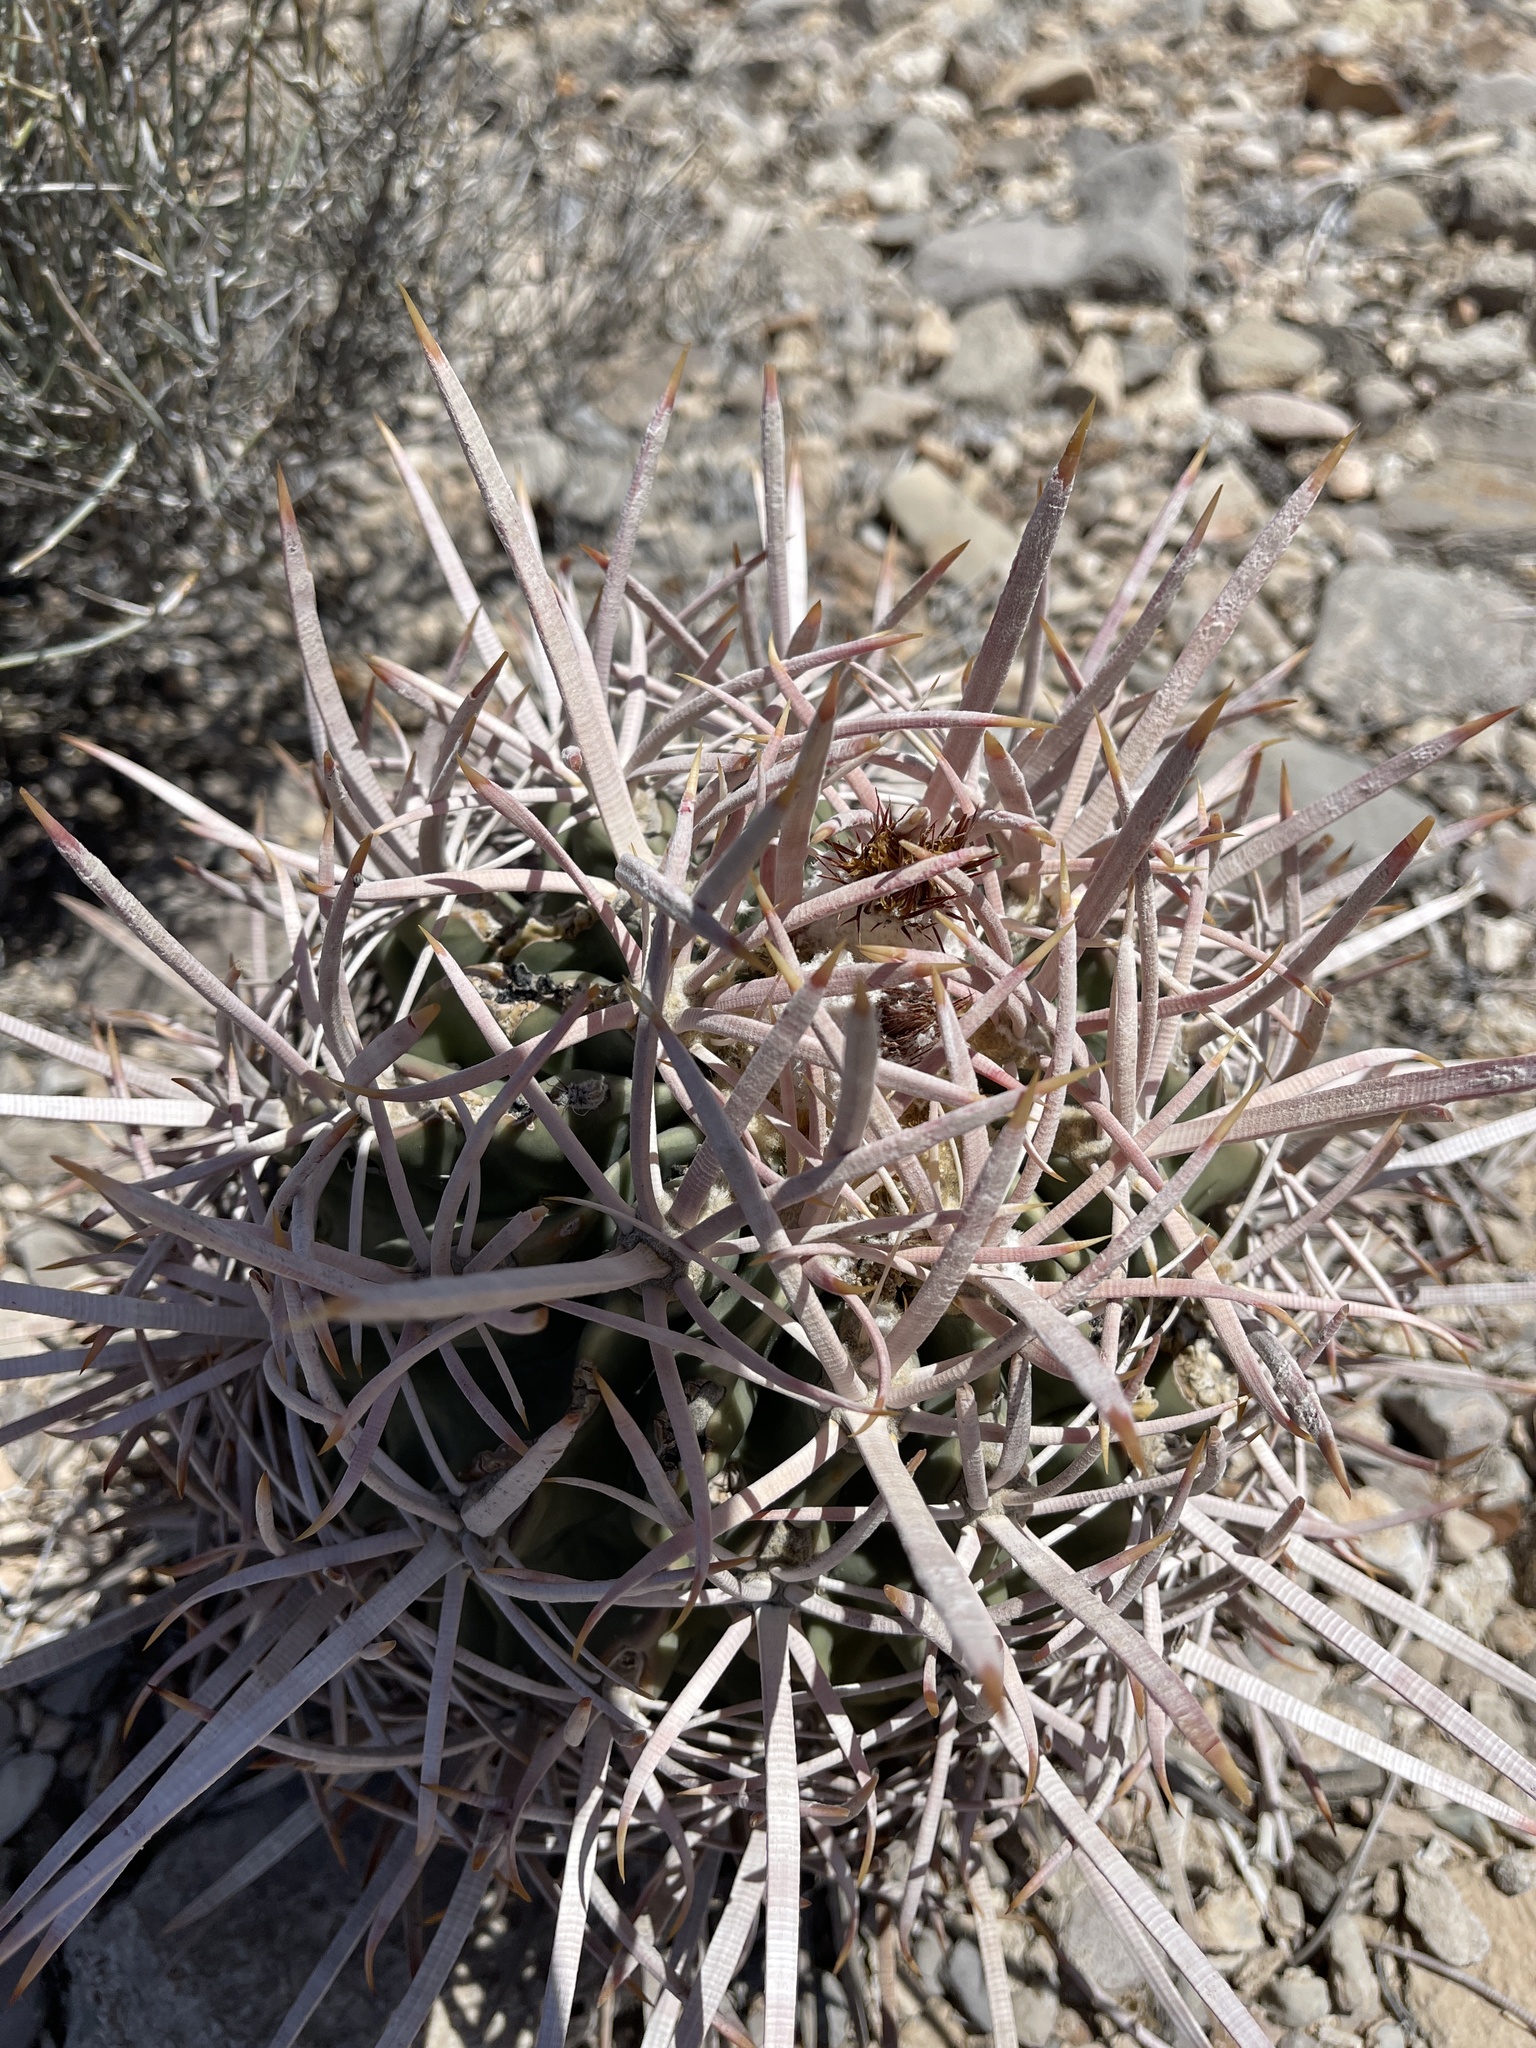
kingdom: Plantae
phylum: Tracheophyta
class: Magnoliopsida
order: Caryophyllales
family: Cactaceae
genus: Echinocactus
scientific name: Echinocactus polycephalus
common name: Cottontop cactus
